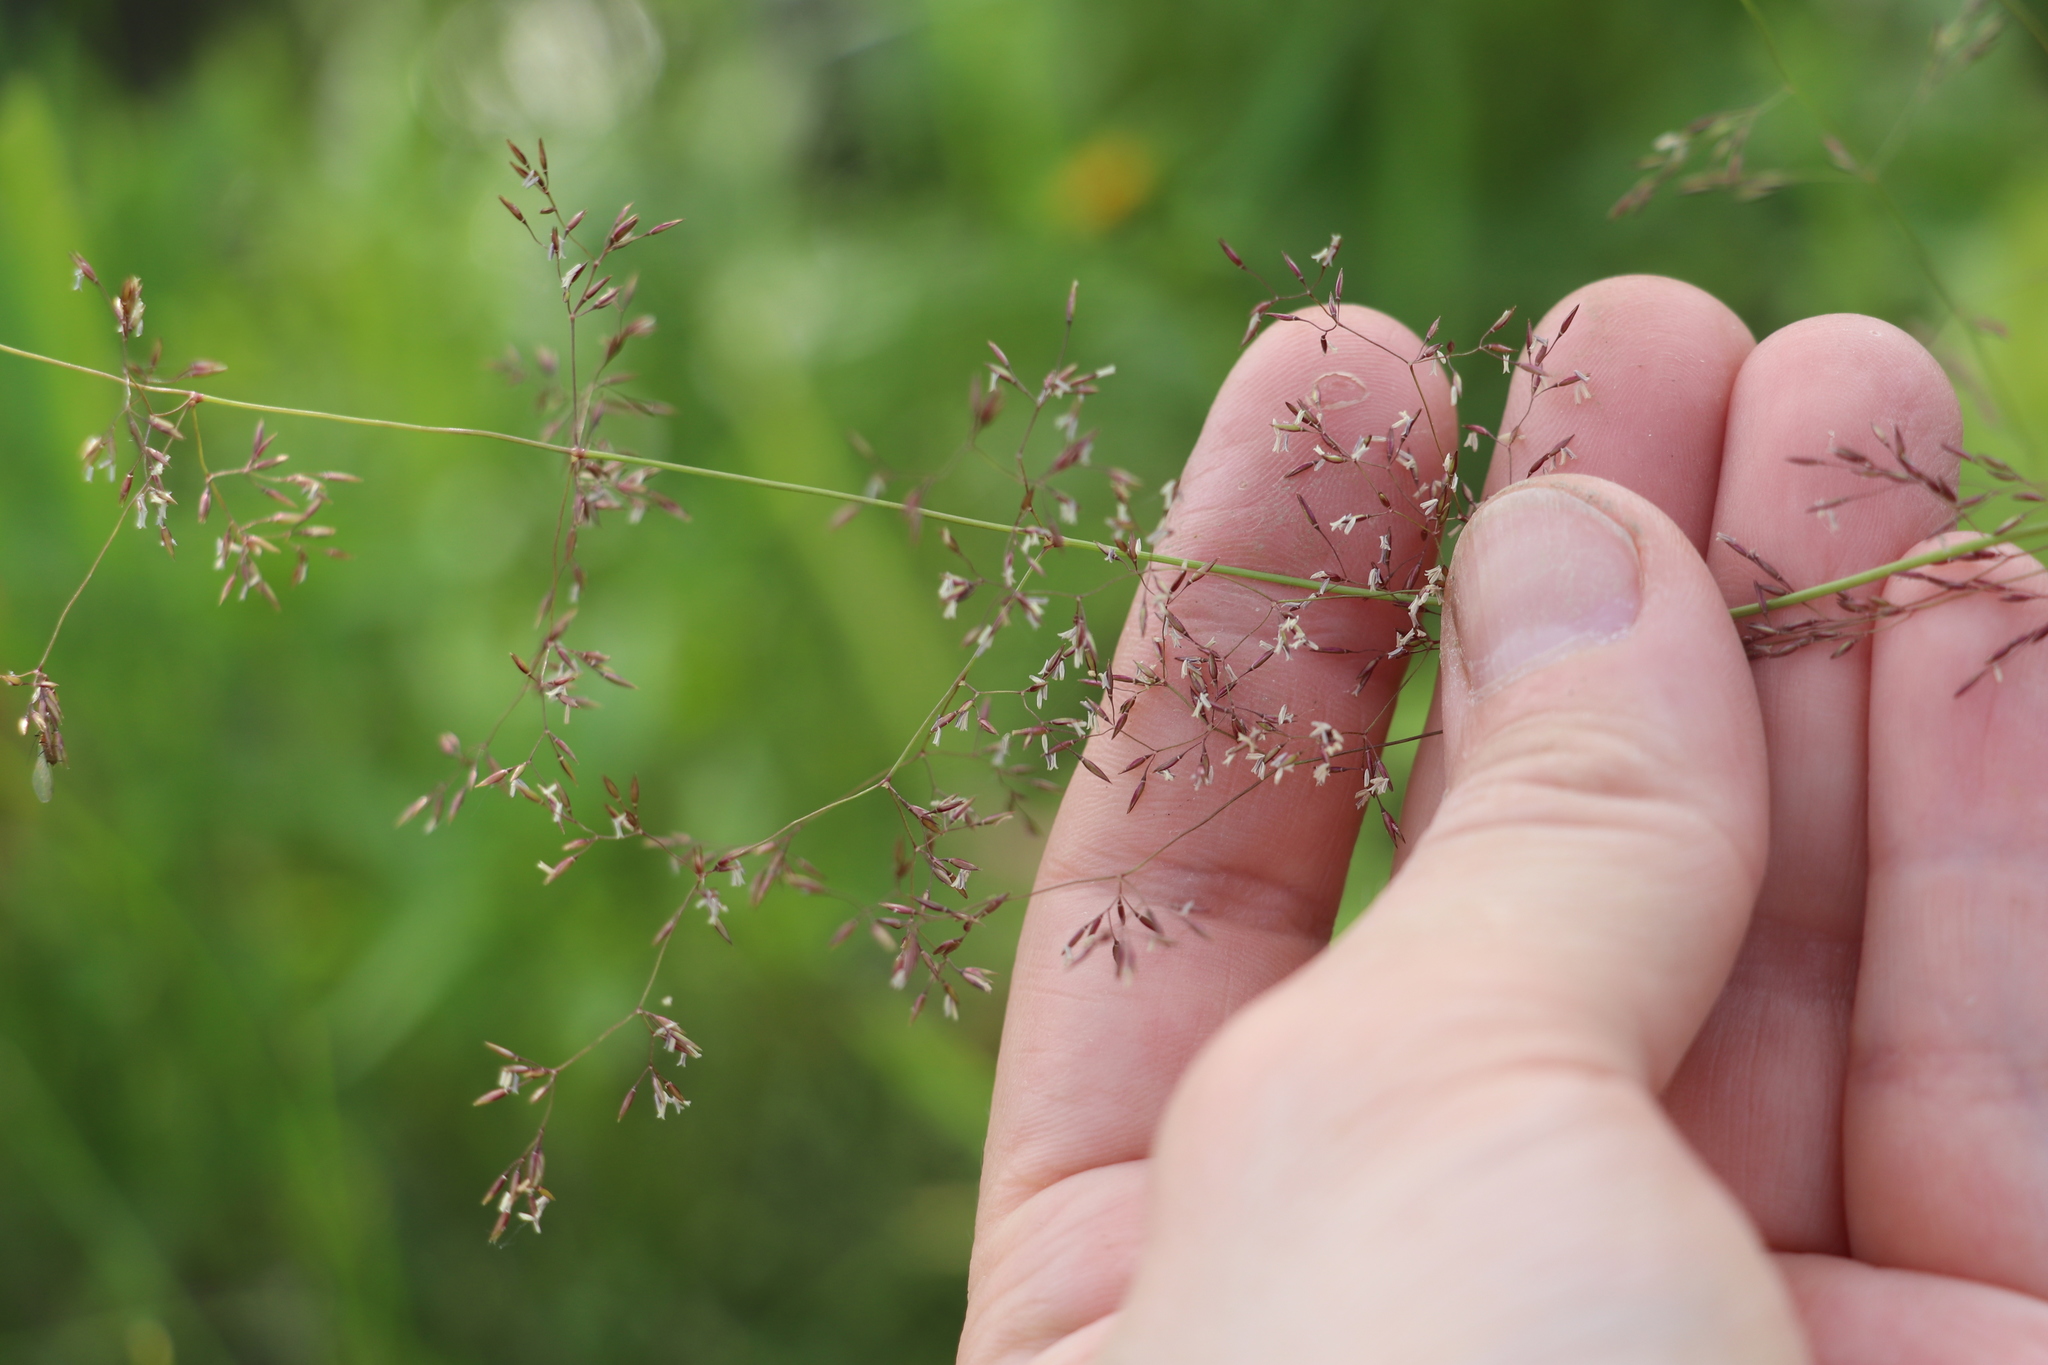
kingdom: Plantae
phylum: Tracheophyta
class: Liliopsida
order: Poales
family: Poaceae
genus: Agrostis
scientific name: Agrostis gigantea
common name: Black bent
